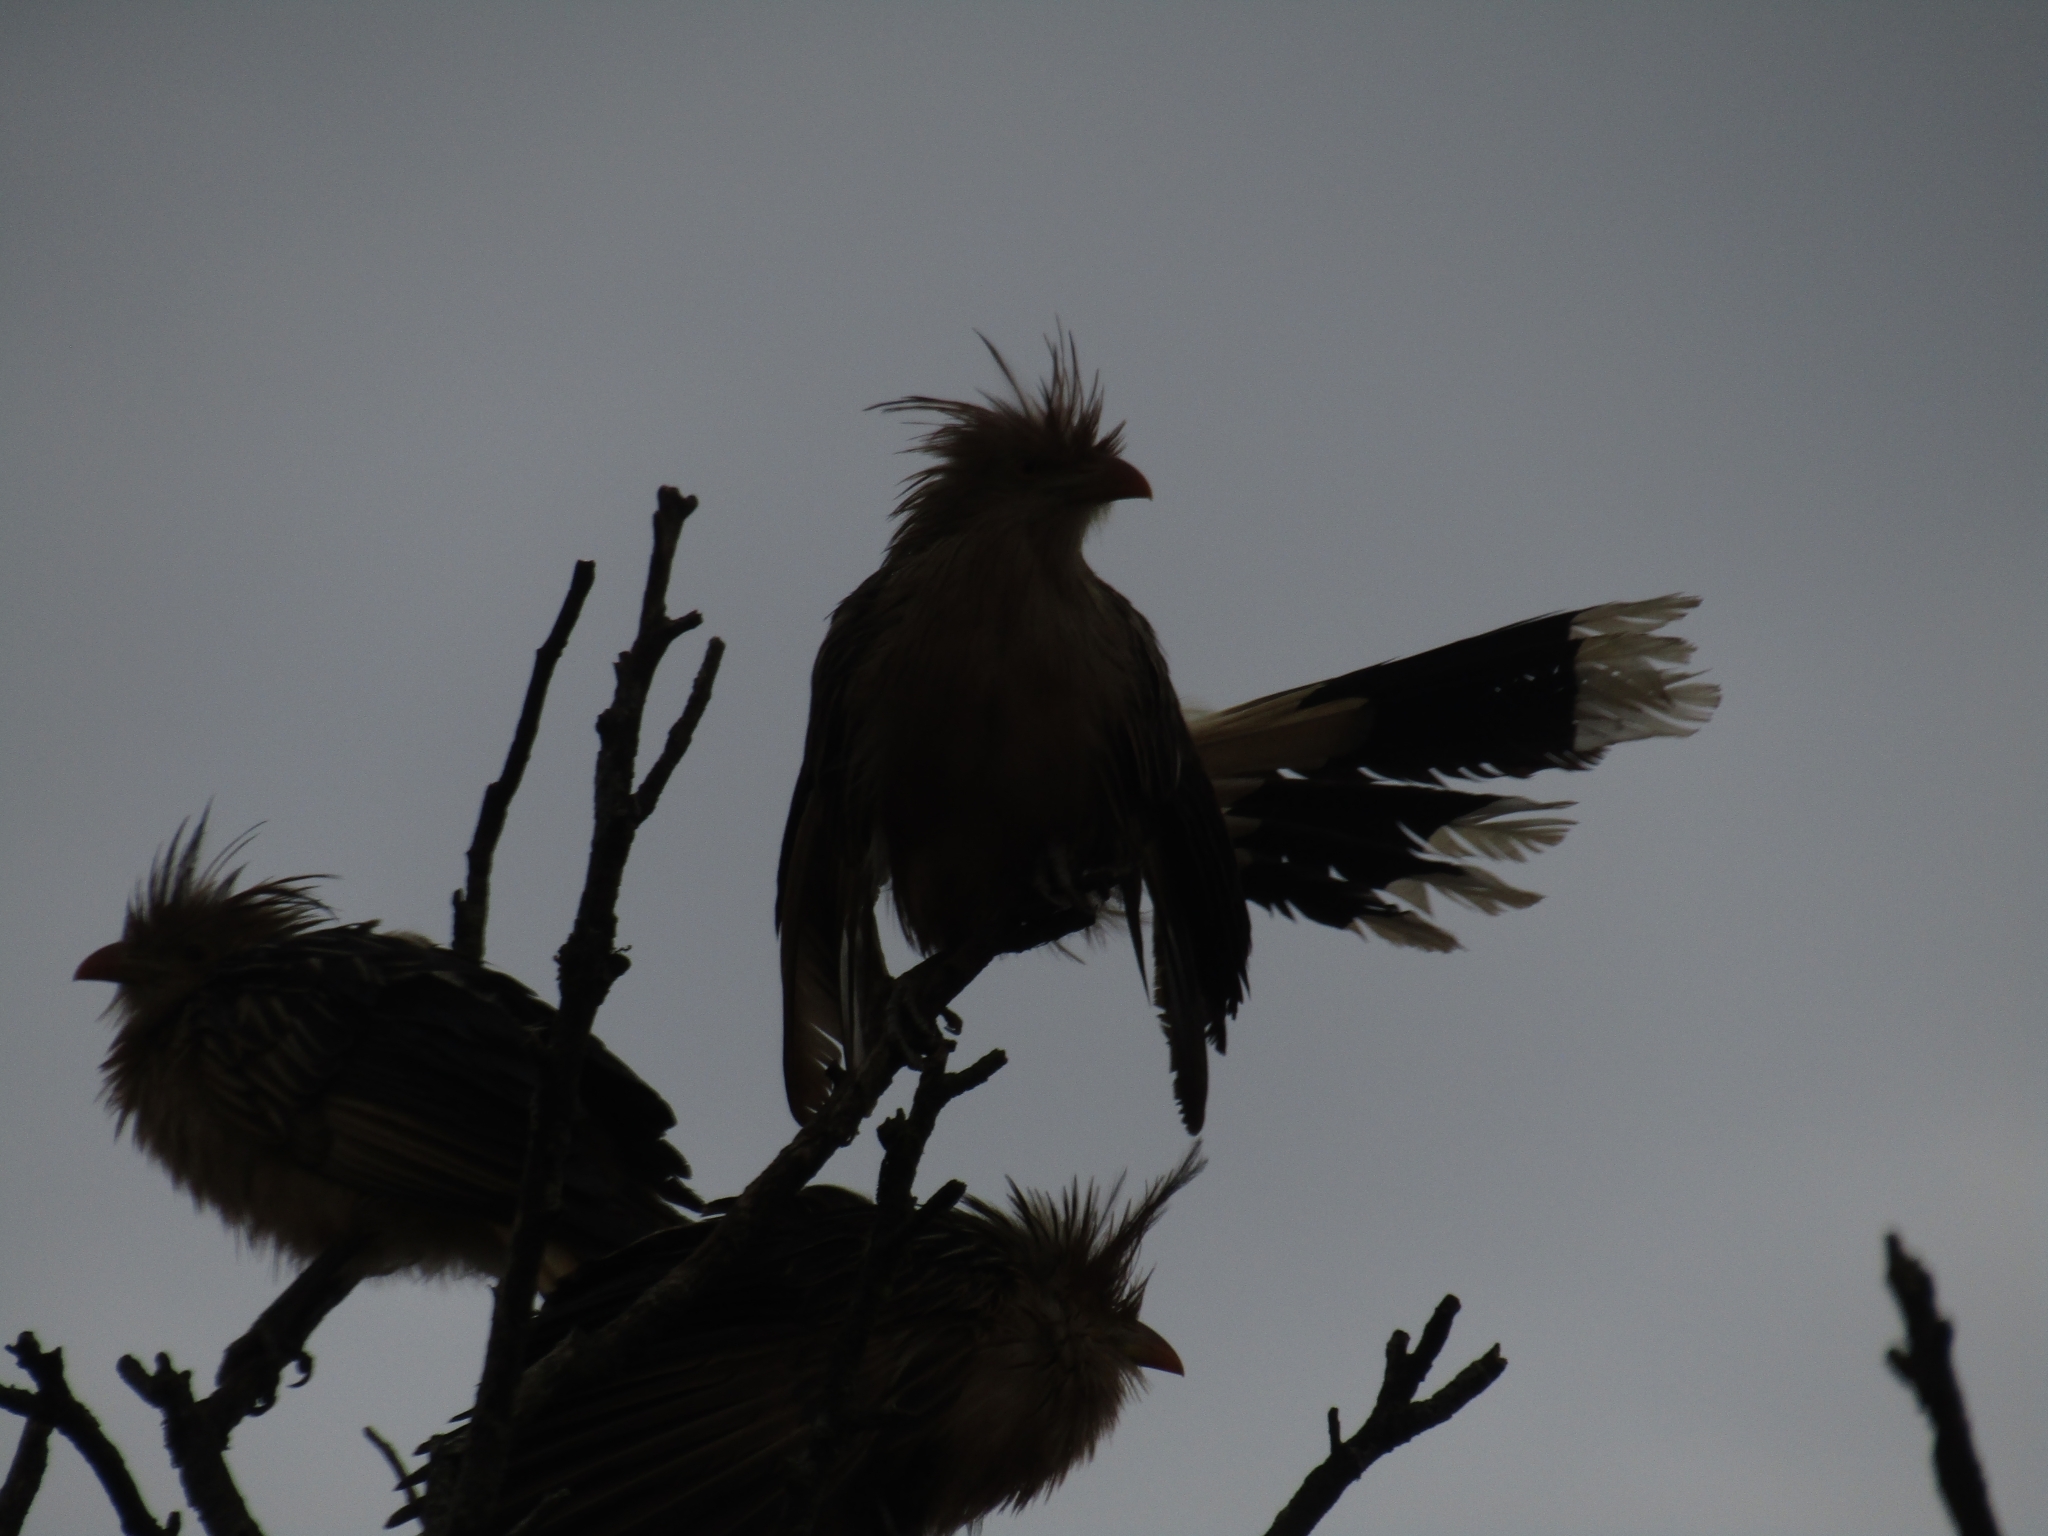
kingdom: Animalia
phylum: Chordata
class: Aves
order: Cuculiformes
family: Cuculidae
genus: Guira
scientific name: Guira guira
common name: Guira cuckoo
